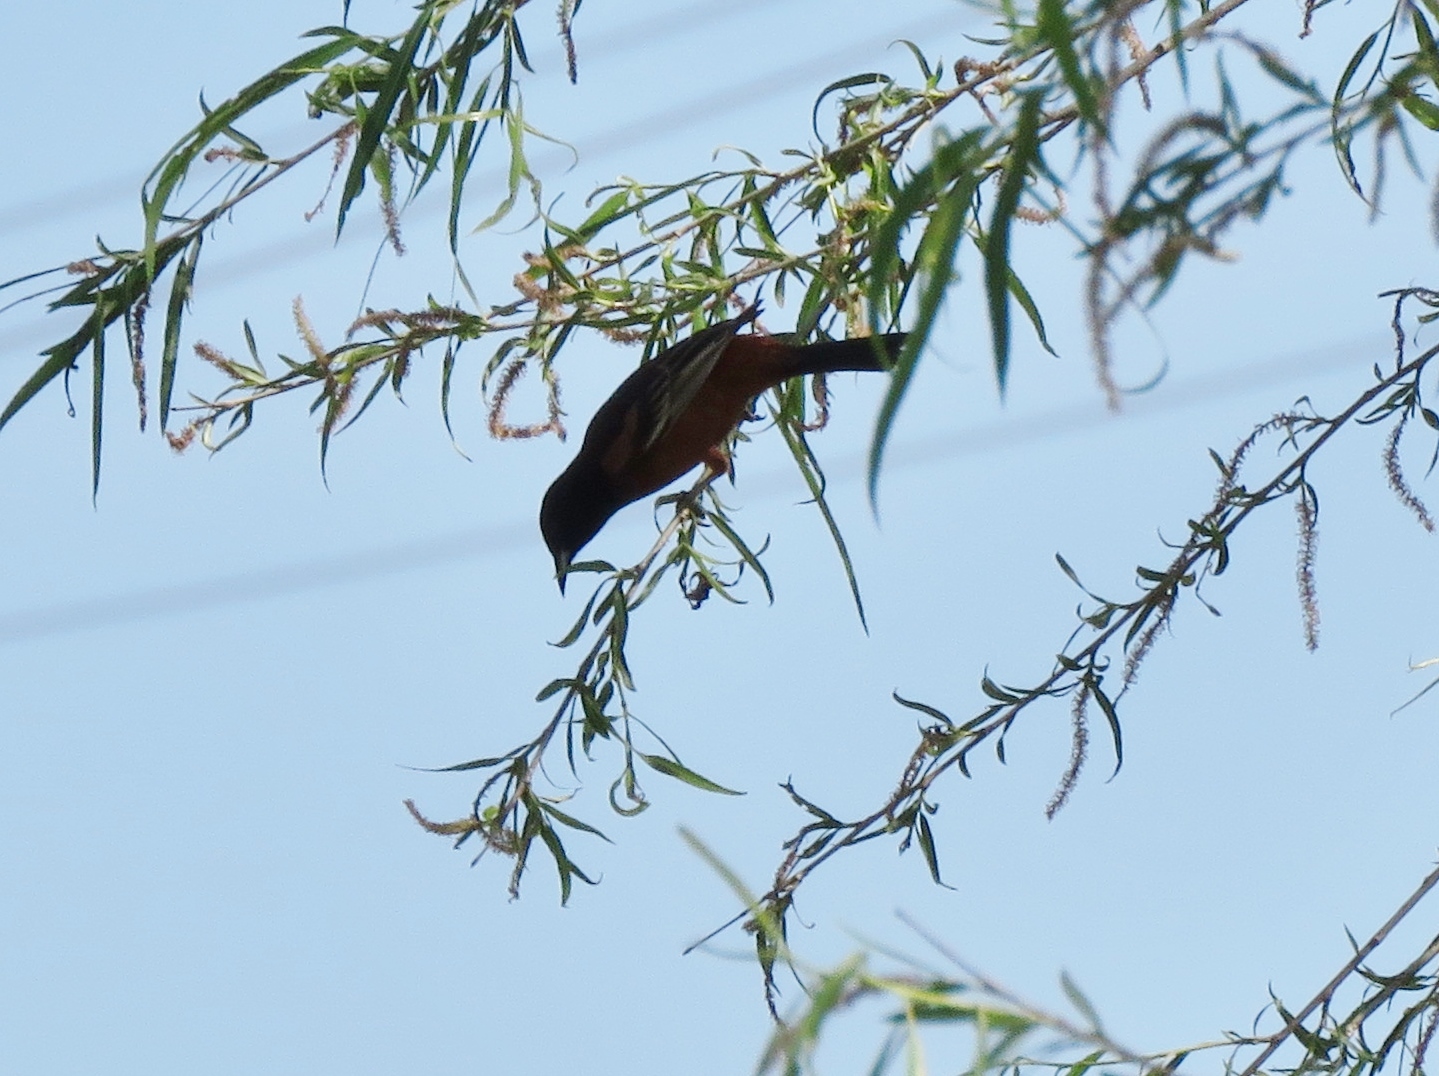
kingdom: Animalia
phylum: Chordata
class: Aves
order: Passeriformes
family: Icteridae
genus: Icterus
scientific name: Icterus spurius
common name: Orchard oriole
